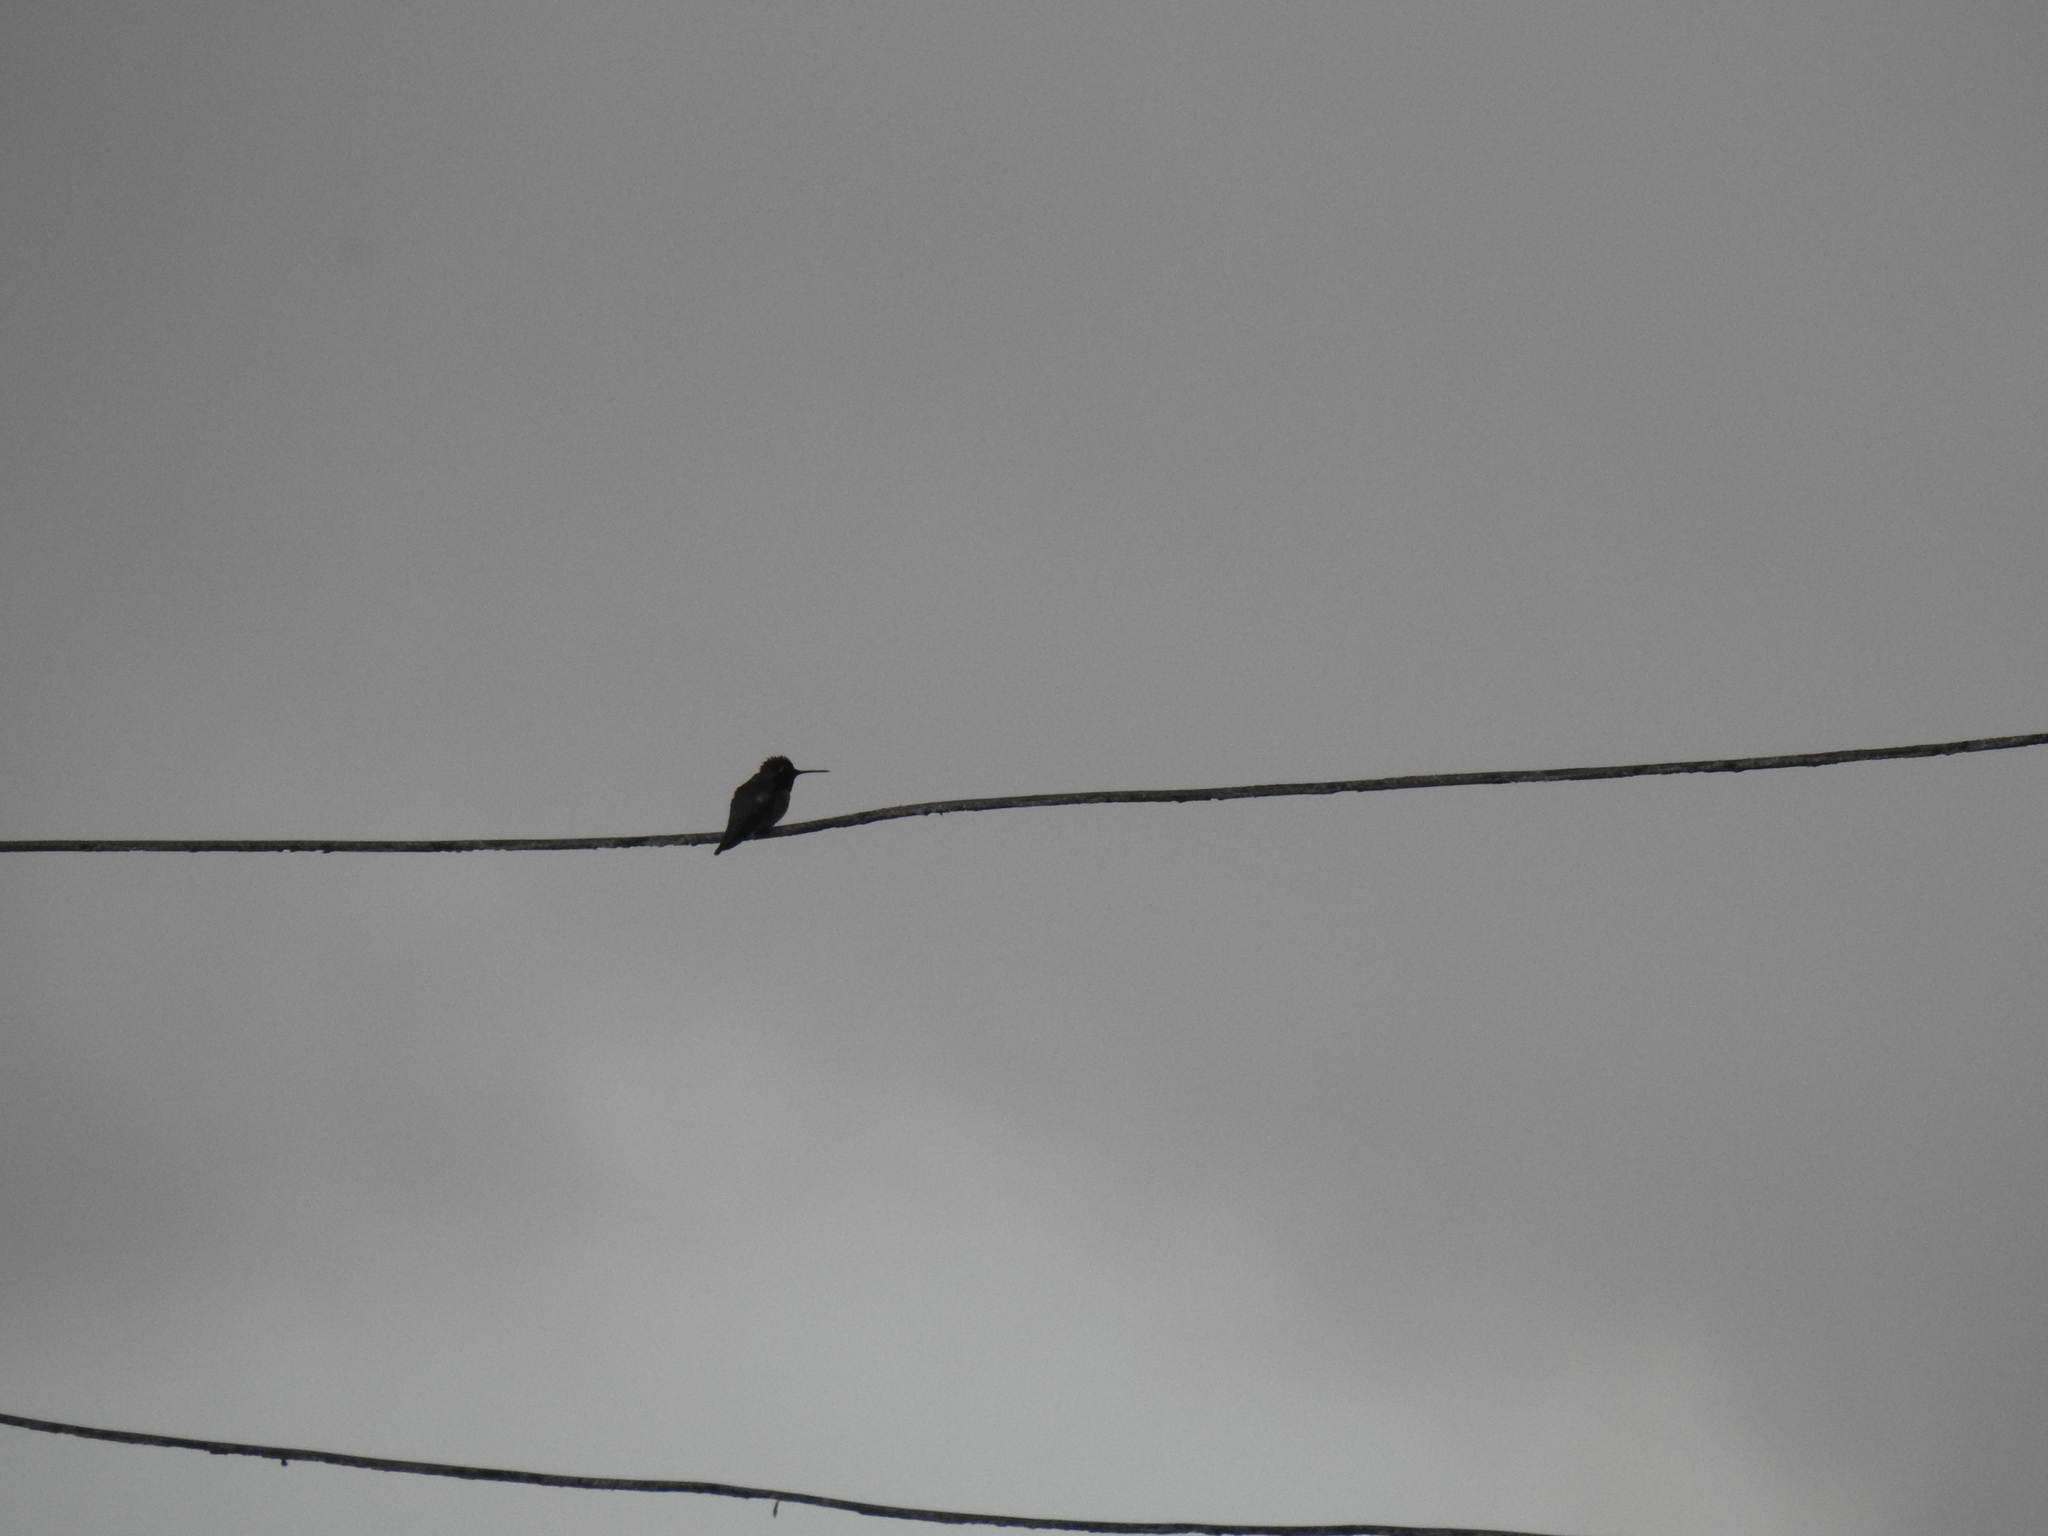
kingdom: Animalia
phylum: Chordata
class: Aves
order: Apodiformes
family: Trochilidae
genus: Calypte
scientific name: Calypte anna
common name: Anna's hummingbird
